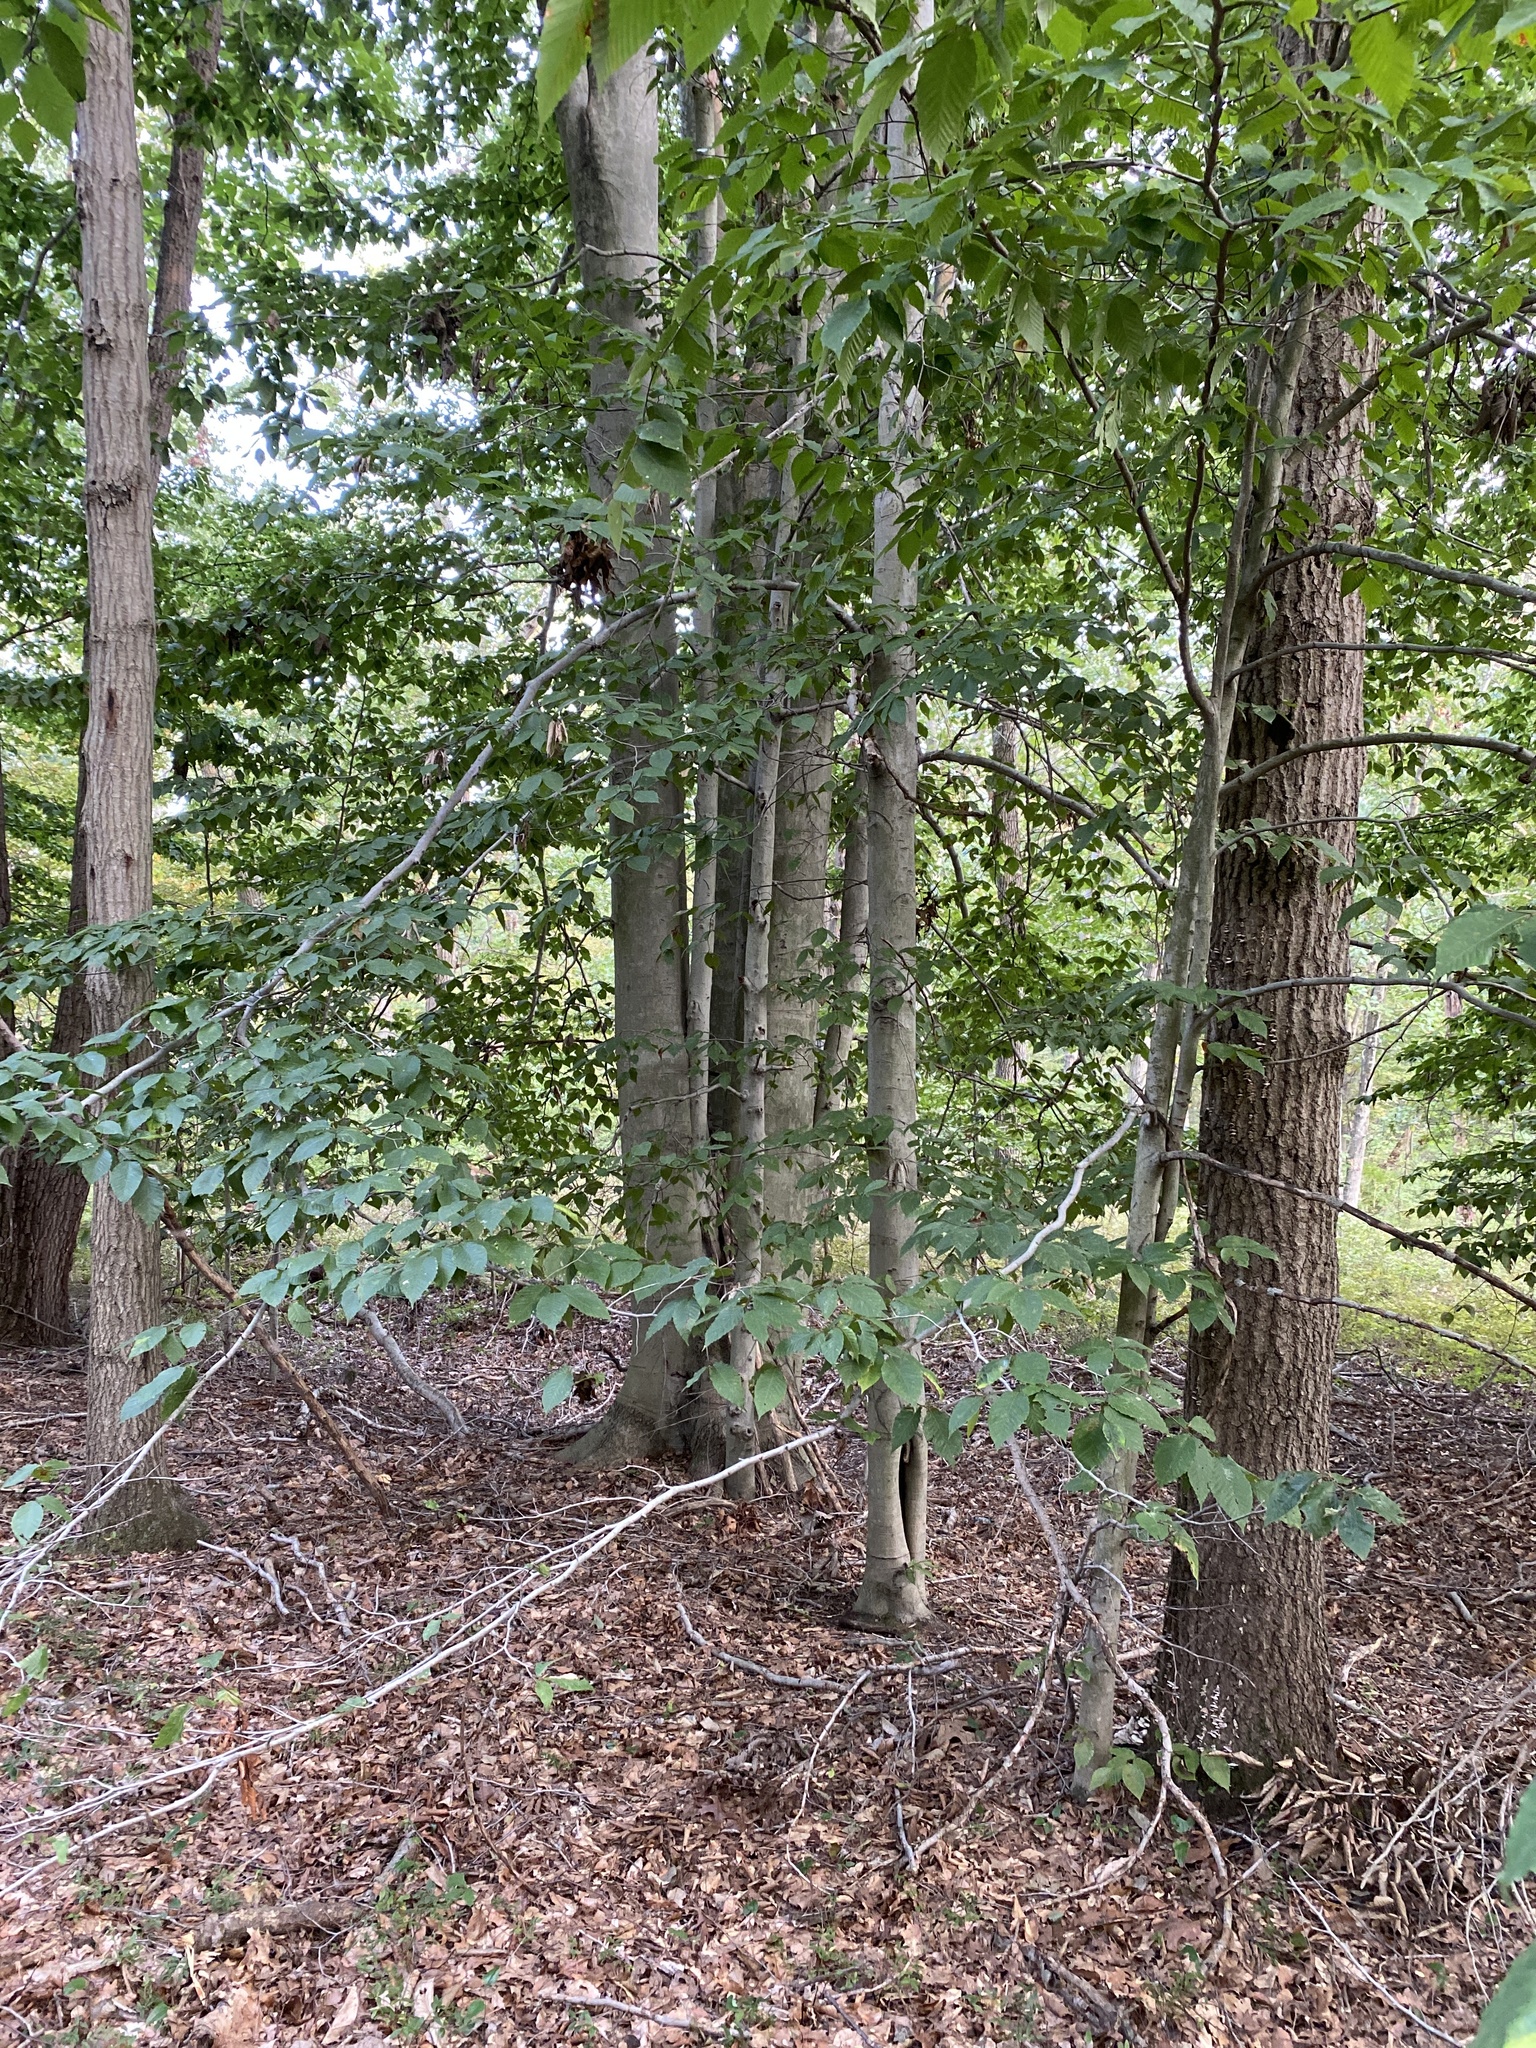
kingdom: Plantae
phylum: Tracheophyta
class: Magnoliopsida
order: Fagales
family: Fagaceae
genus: Fagus
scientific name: Fagus grandifolia
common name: American beech
